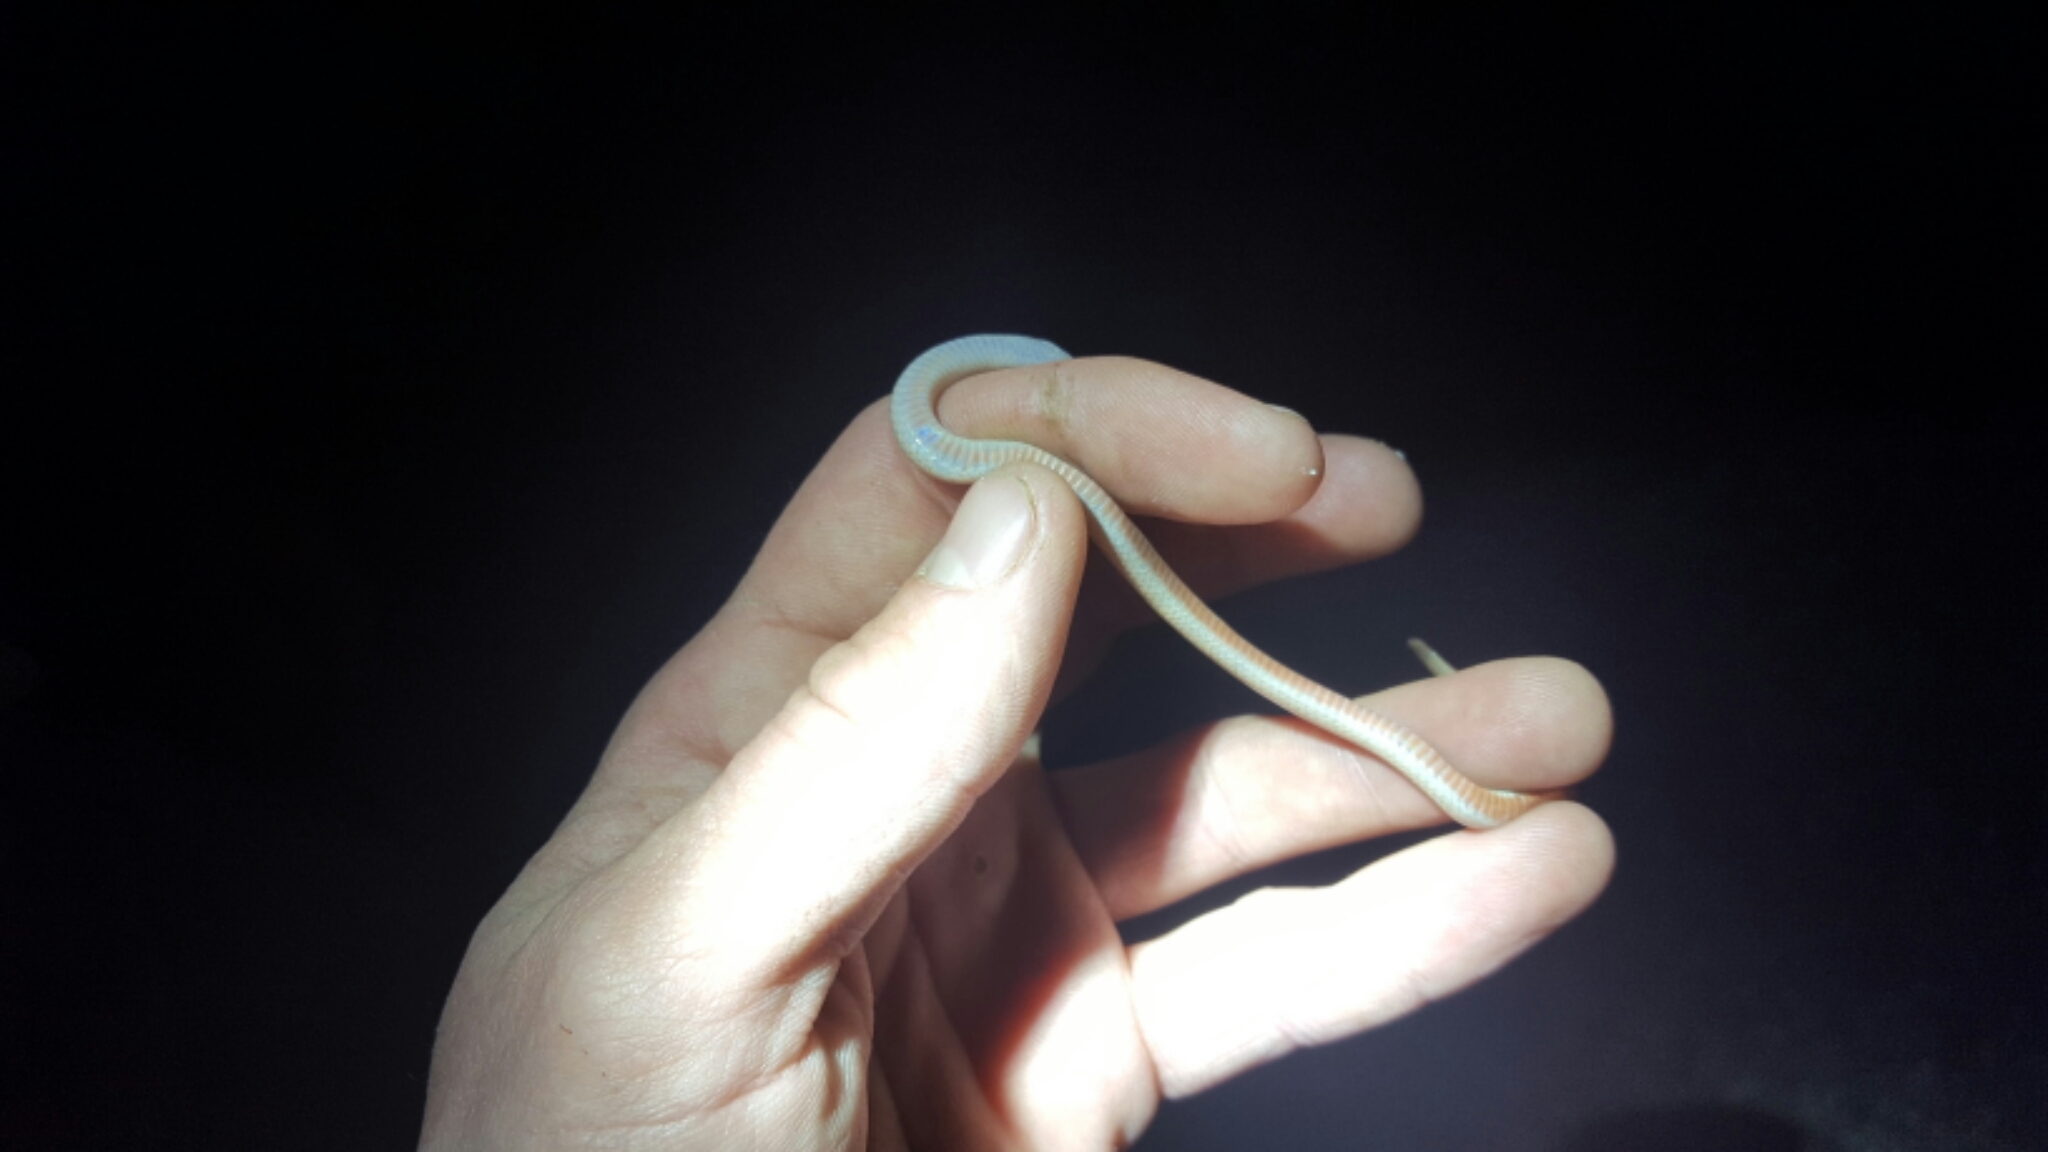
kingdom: Animalia
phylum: Chordata
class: Squamata
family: Colubridae
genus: Tantilla
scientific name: Tantilla gracilis
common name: Flathead snake
